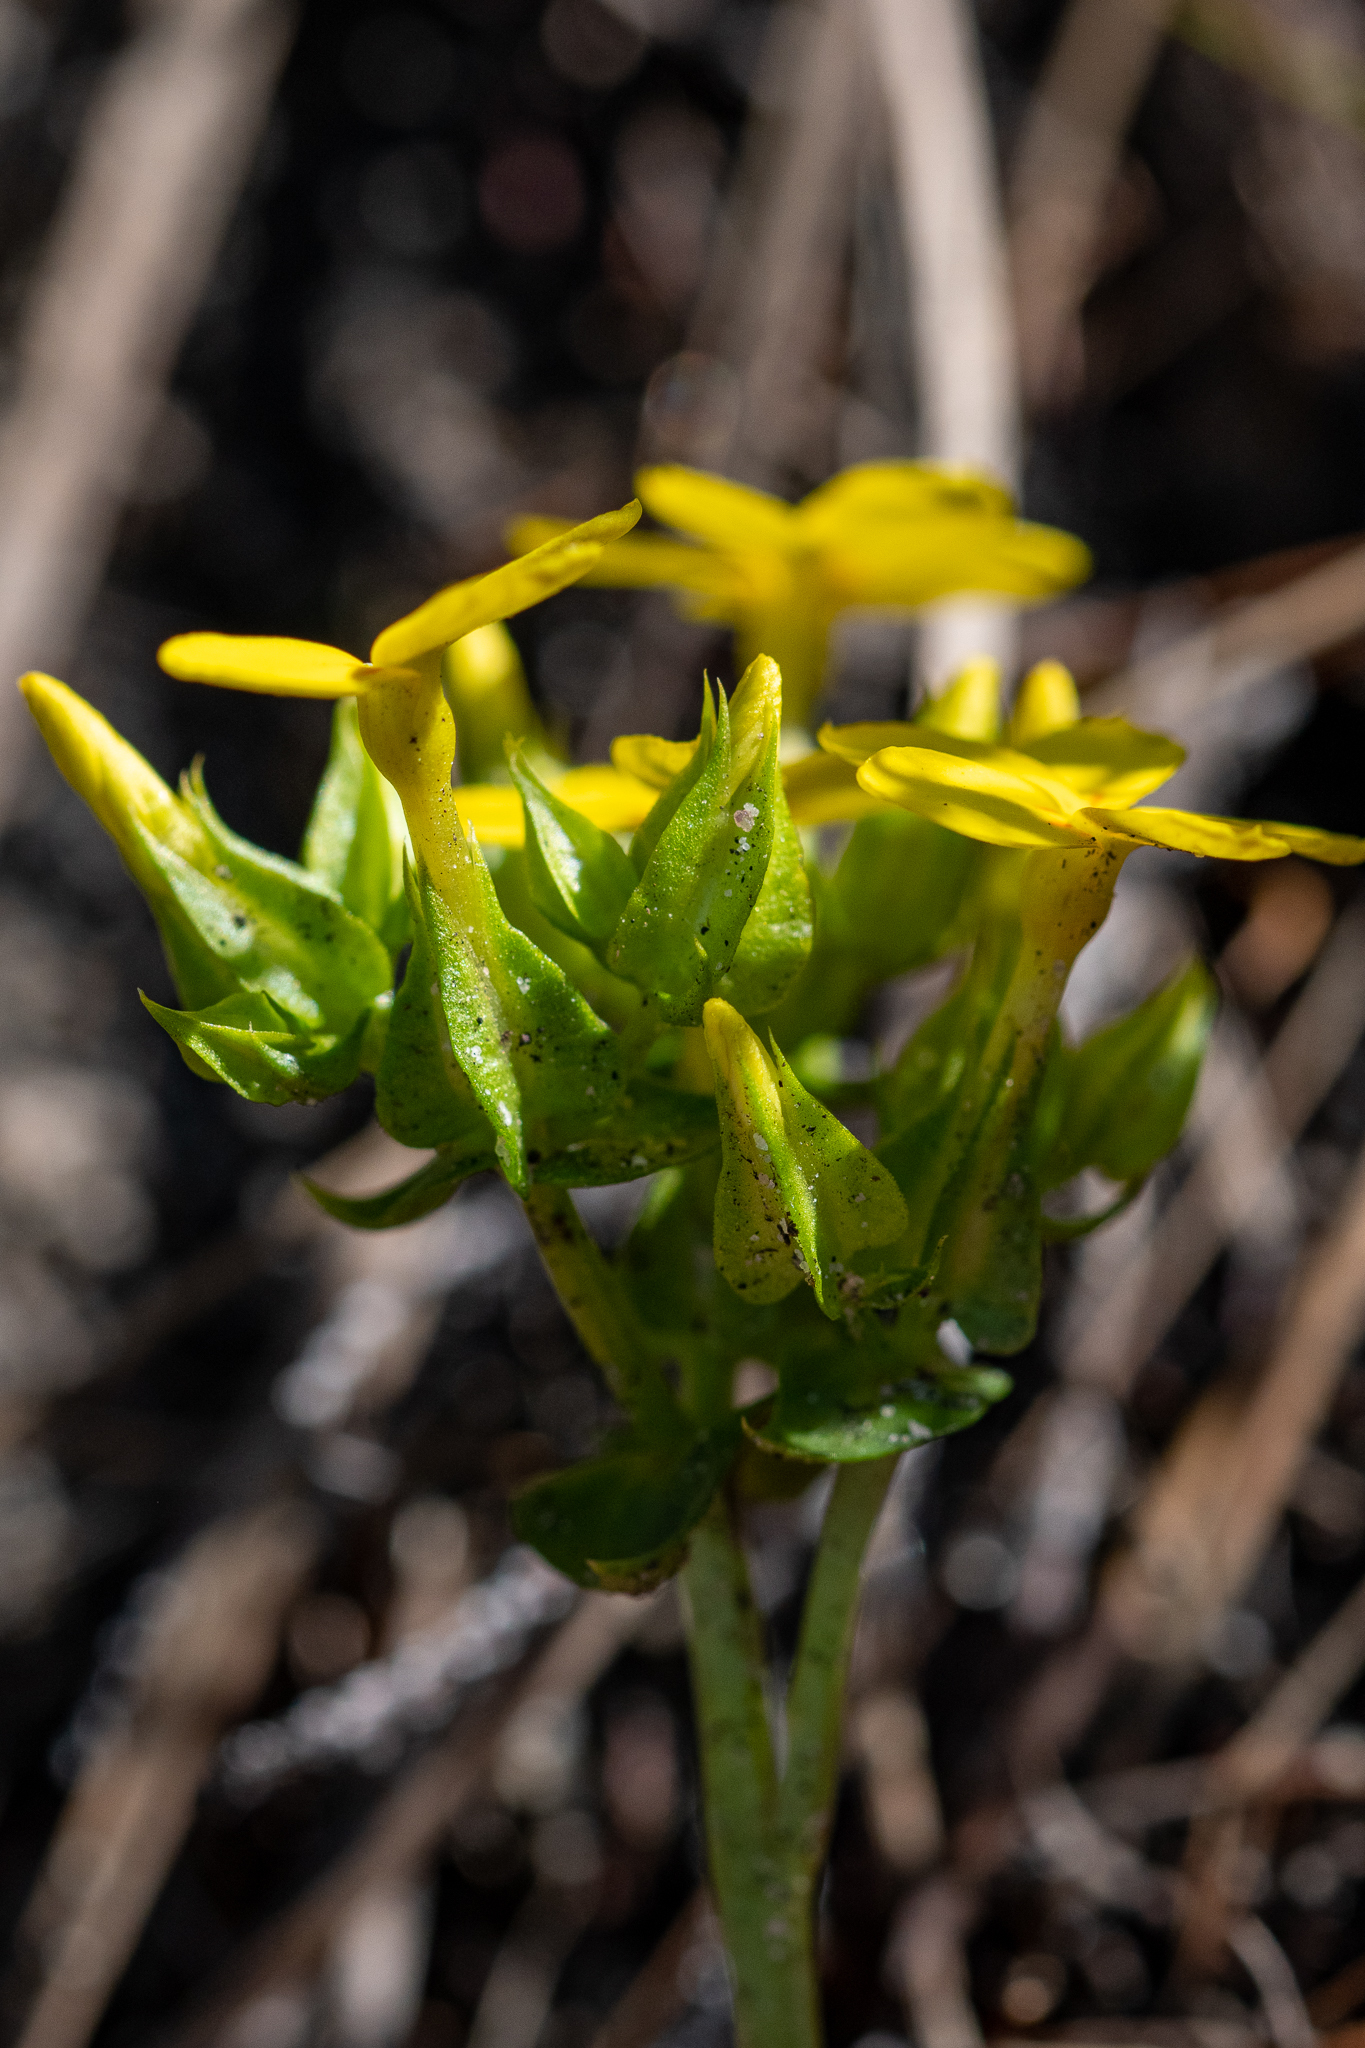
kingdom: Plantae
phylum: Tracheophyta
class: Magnoliopsida
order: Gentianales
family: Gentianaceae
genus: Sebaea
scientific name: Sebaea exacoides
